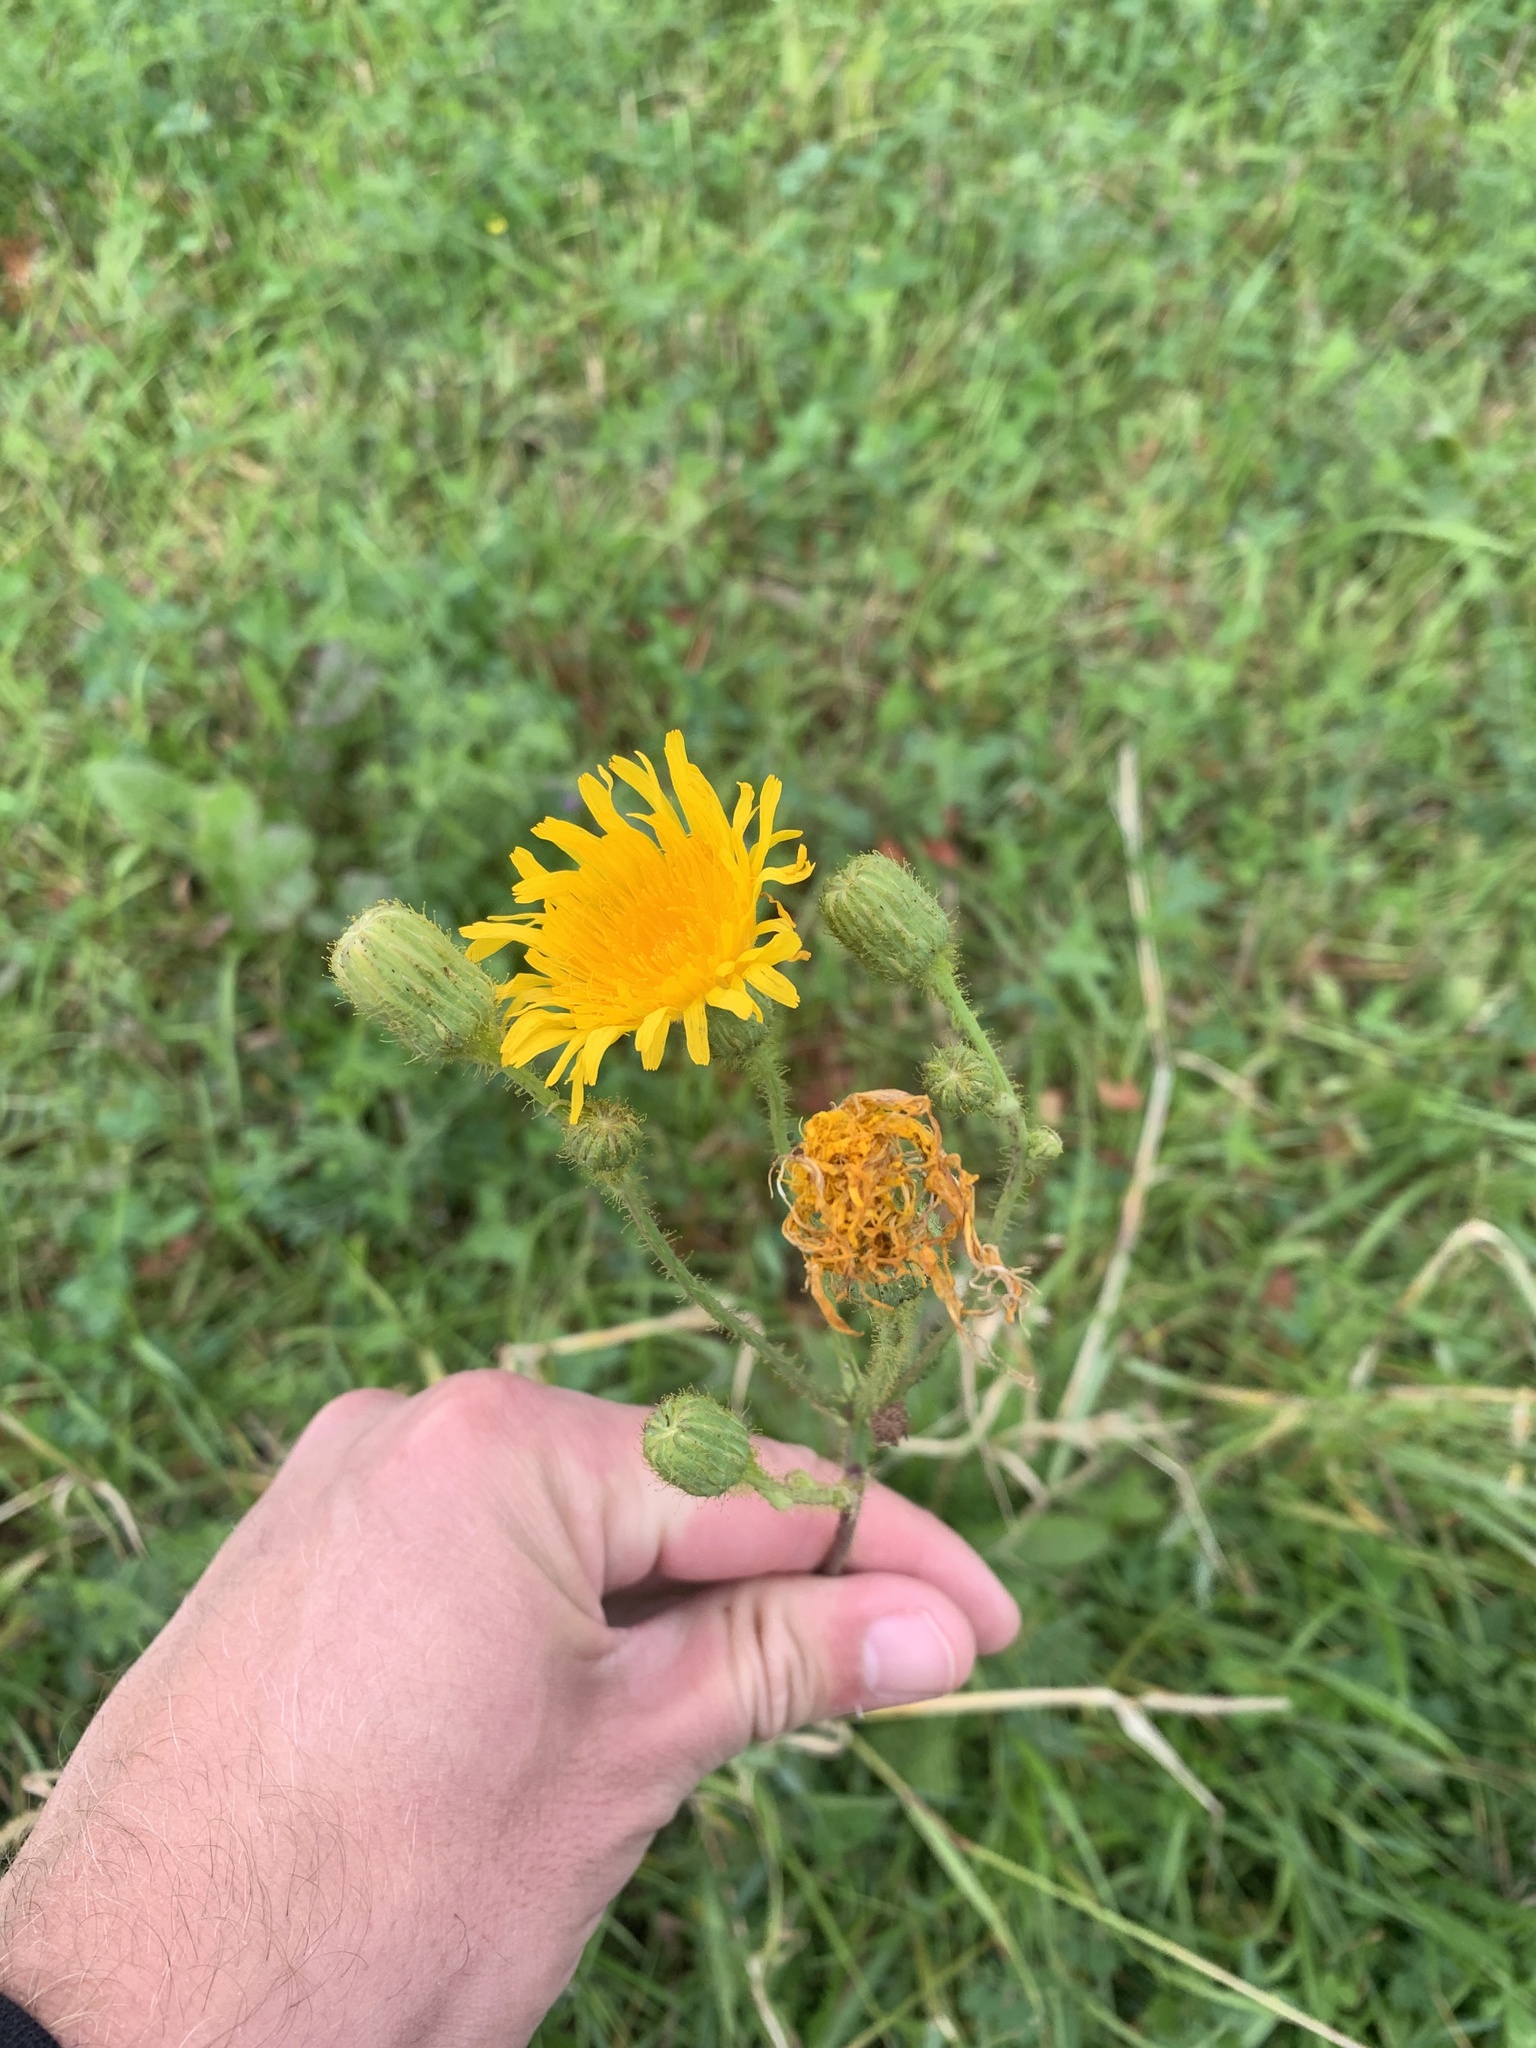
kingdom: Plantae
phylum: Tracheophyta
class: Magnoliopsida
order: Asterales
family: Asteraceae
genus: Sonchus
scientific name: Sonchus arvensis
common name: Perennial sow-thistle
